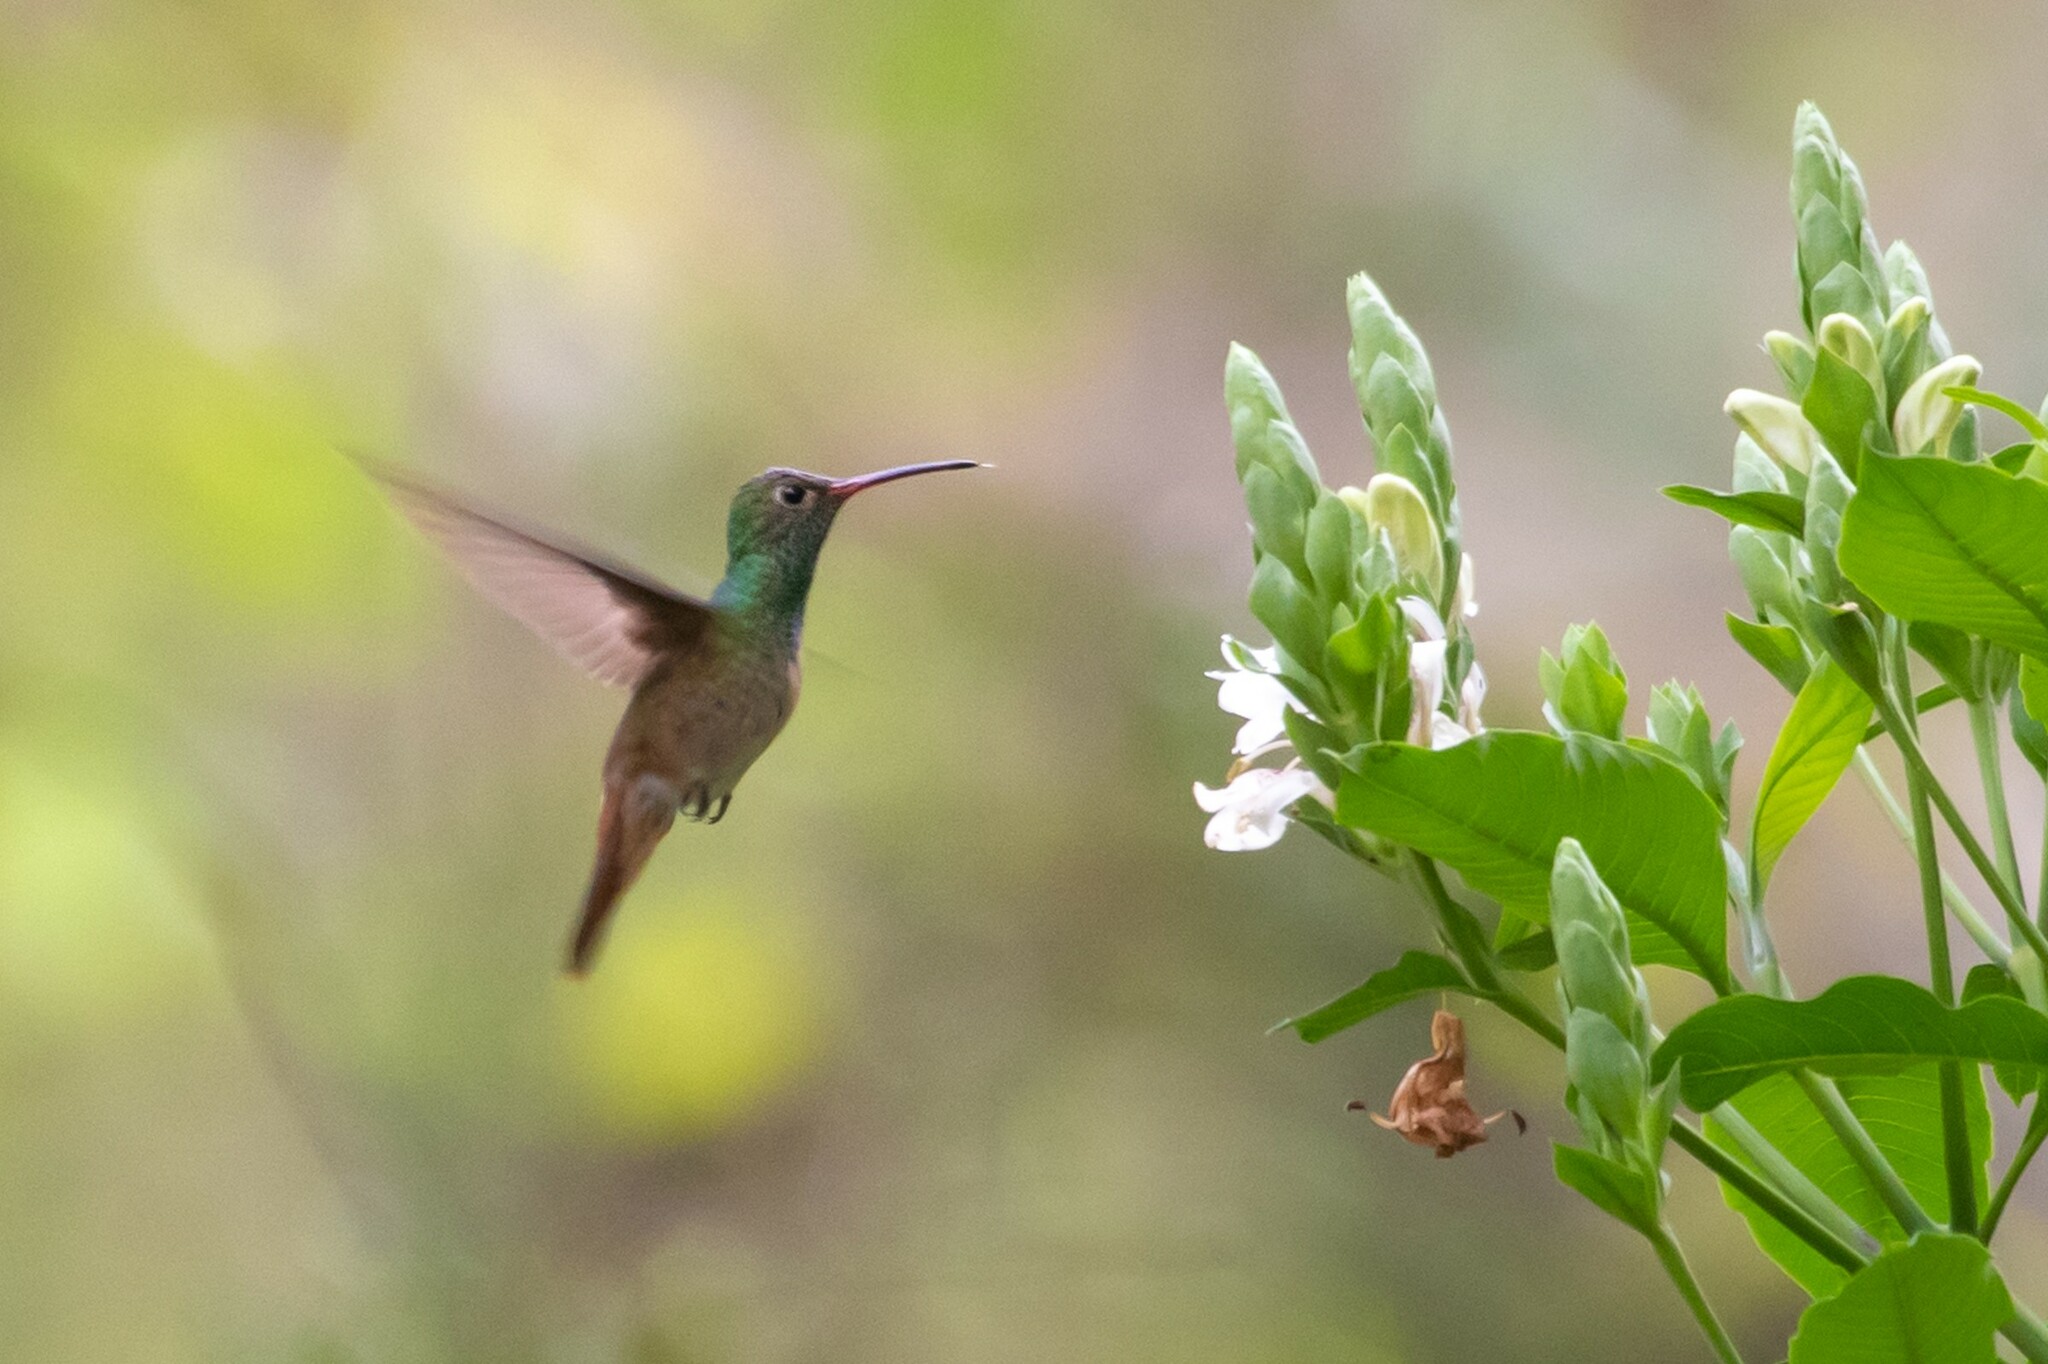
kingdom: Animalia
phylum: Chordata
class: Aves
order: Apodiformes
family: Trochilidae
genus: Amazilia
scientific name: Amazilia yucatanensis
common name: Buff-bellied hummingbird
